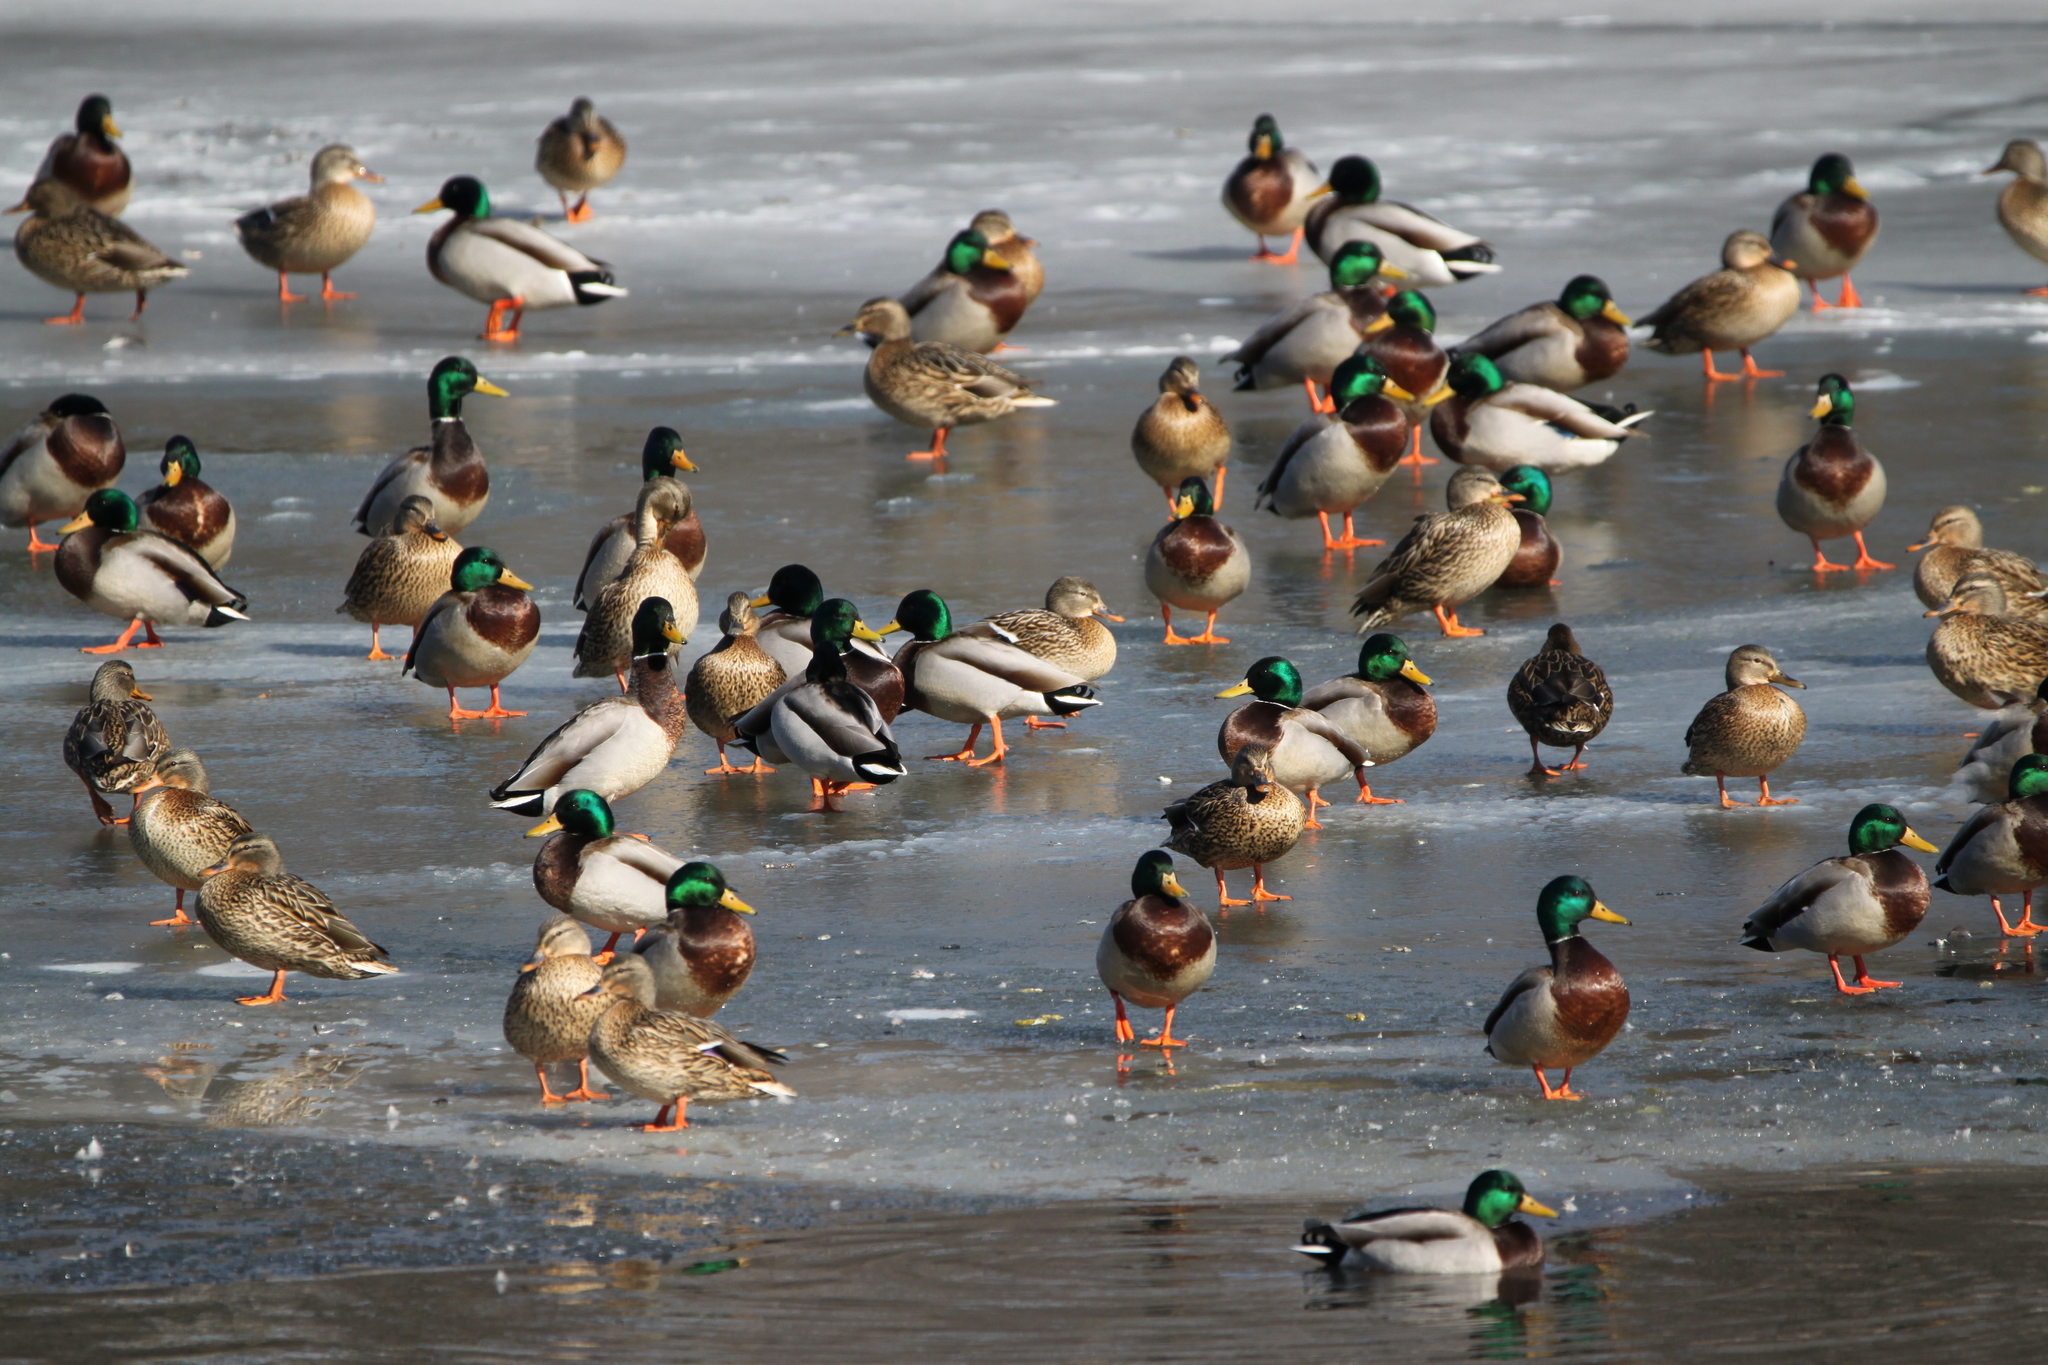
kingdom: Animalia
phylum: Chordata
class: Aves
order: Anseriformes
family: Anatidae
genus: Anas
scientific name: Anas platyrhynchos
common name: Mallard
